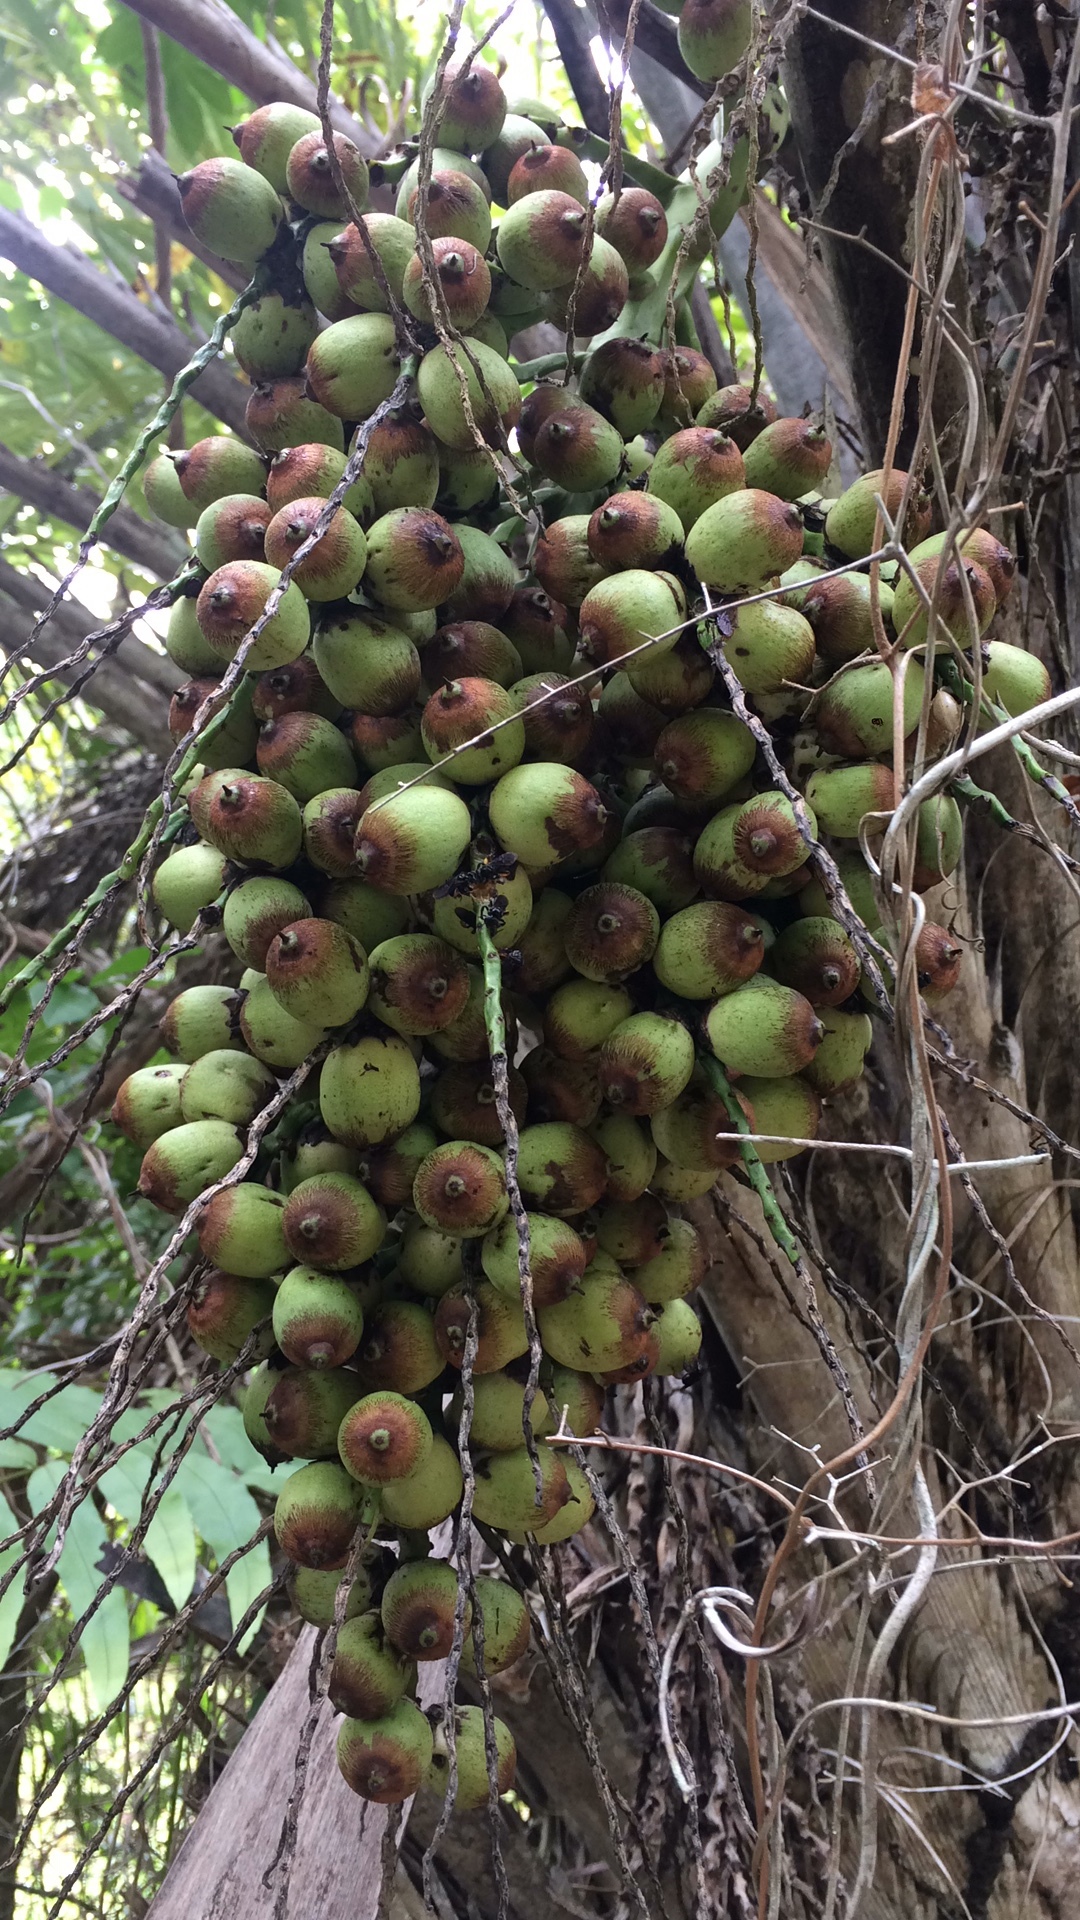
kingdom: Plantae
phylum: Tracheophyta
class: Liliopsida
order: Arecales
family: Arecaceae
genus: Syagrus
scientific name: Syagrus coronata
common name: Licuri palm
